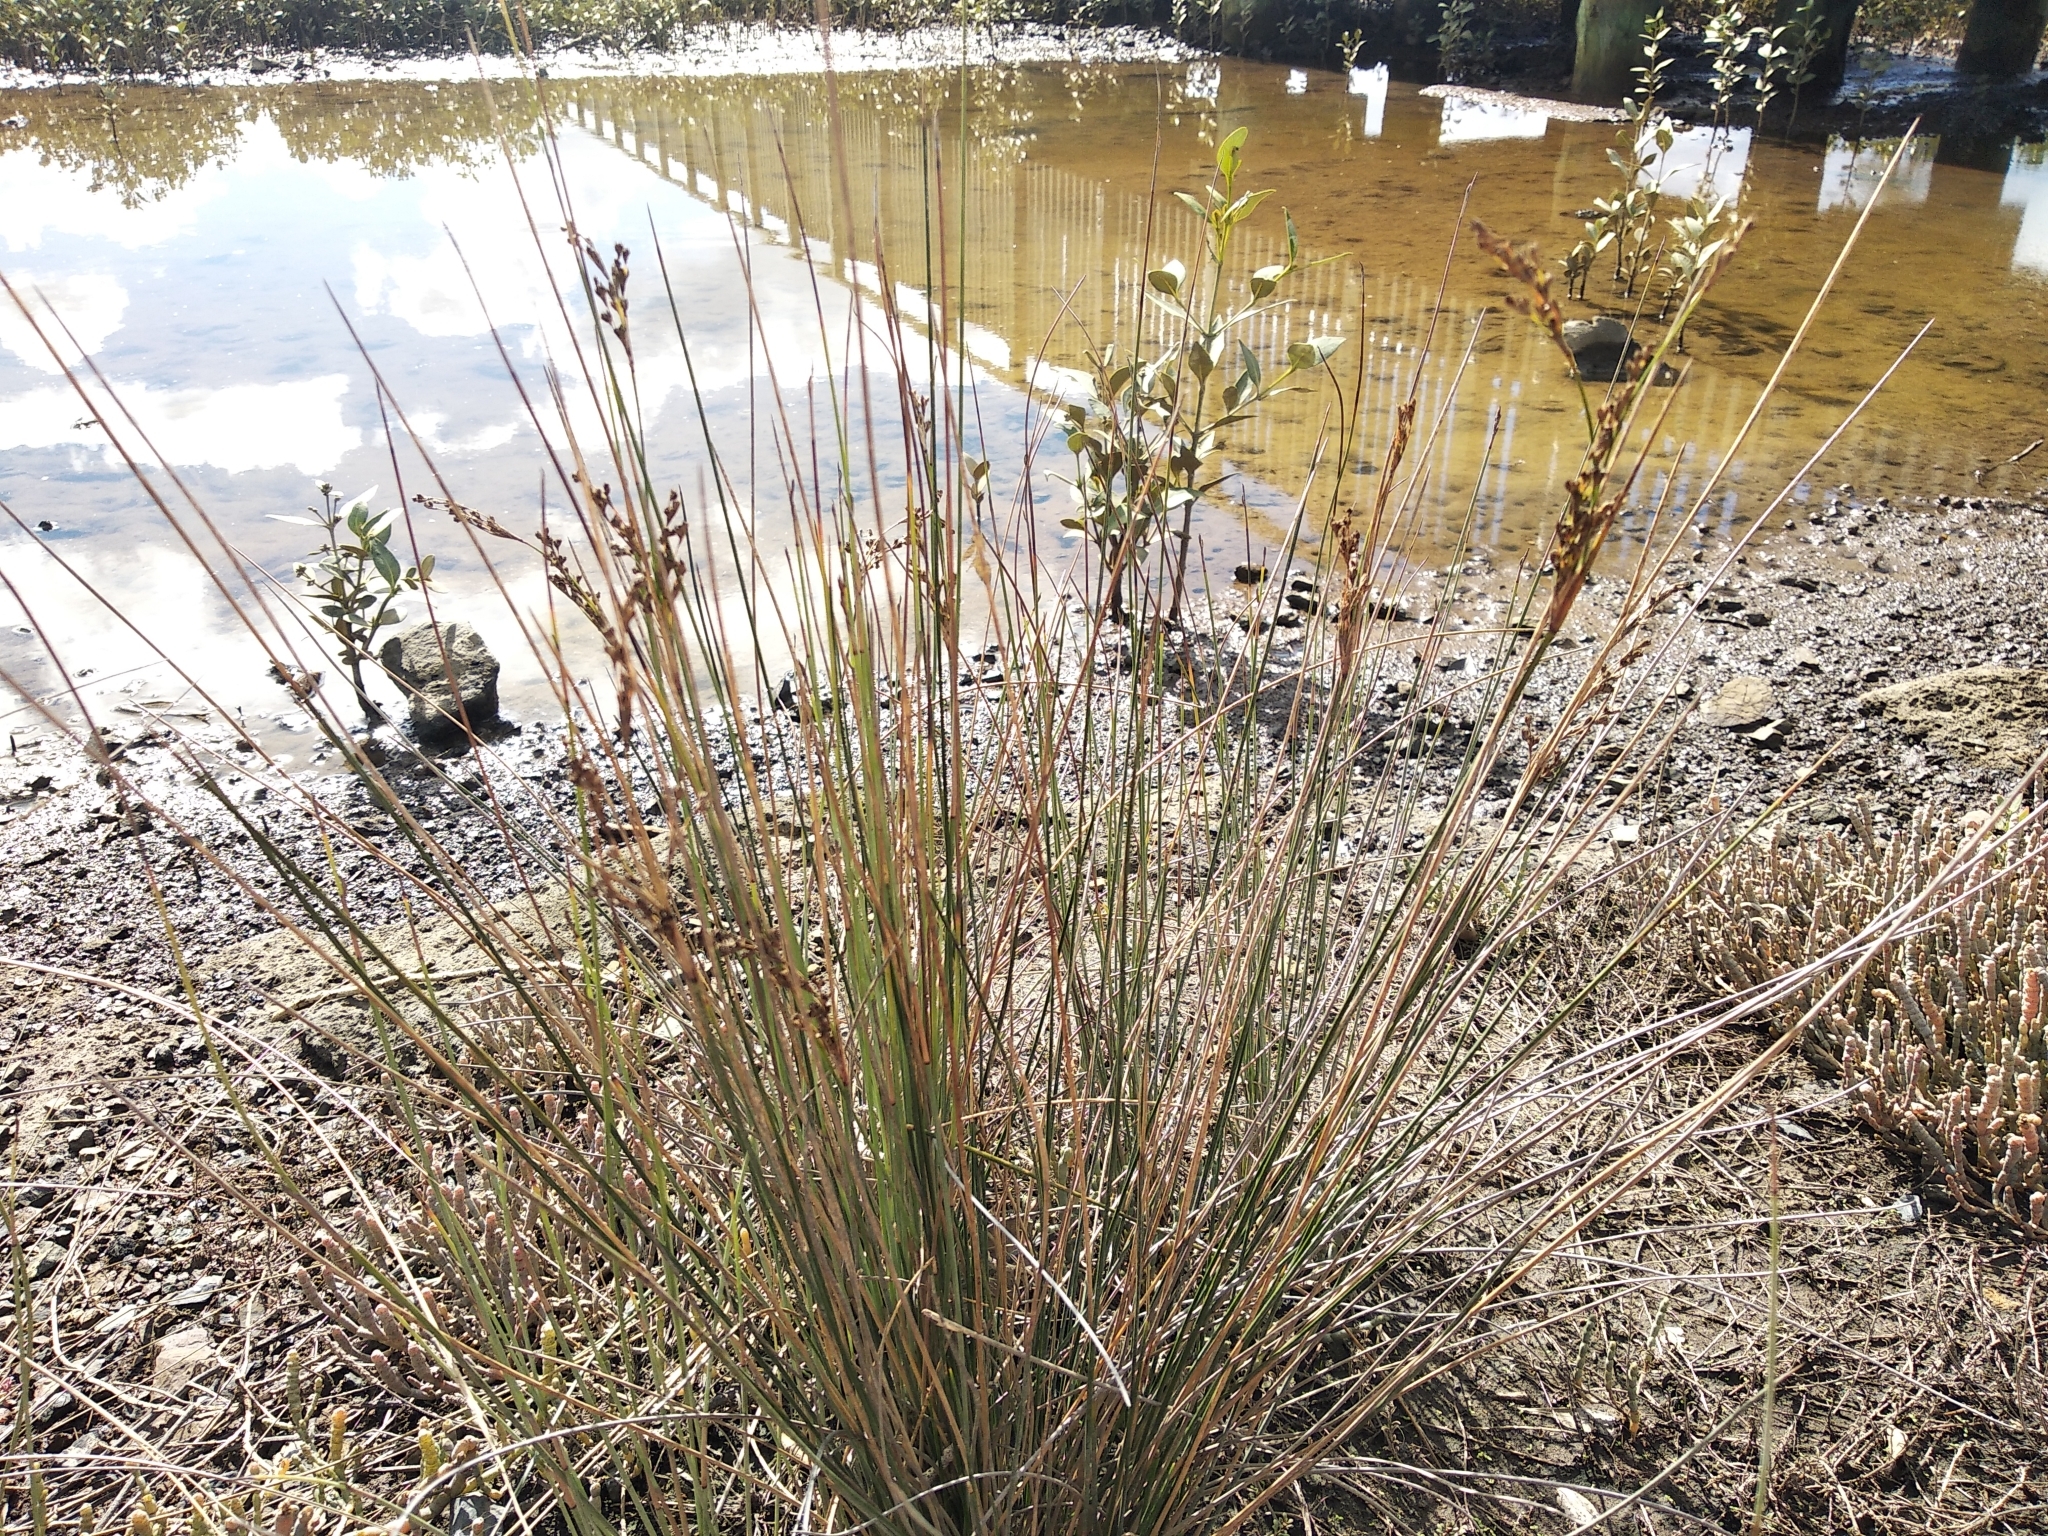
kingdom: Plantae
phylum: Tracheophyta
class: Liliopsida
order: Poales
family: Juncaceae
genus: Juncus
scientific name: Juncus kraussii
